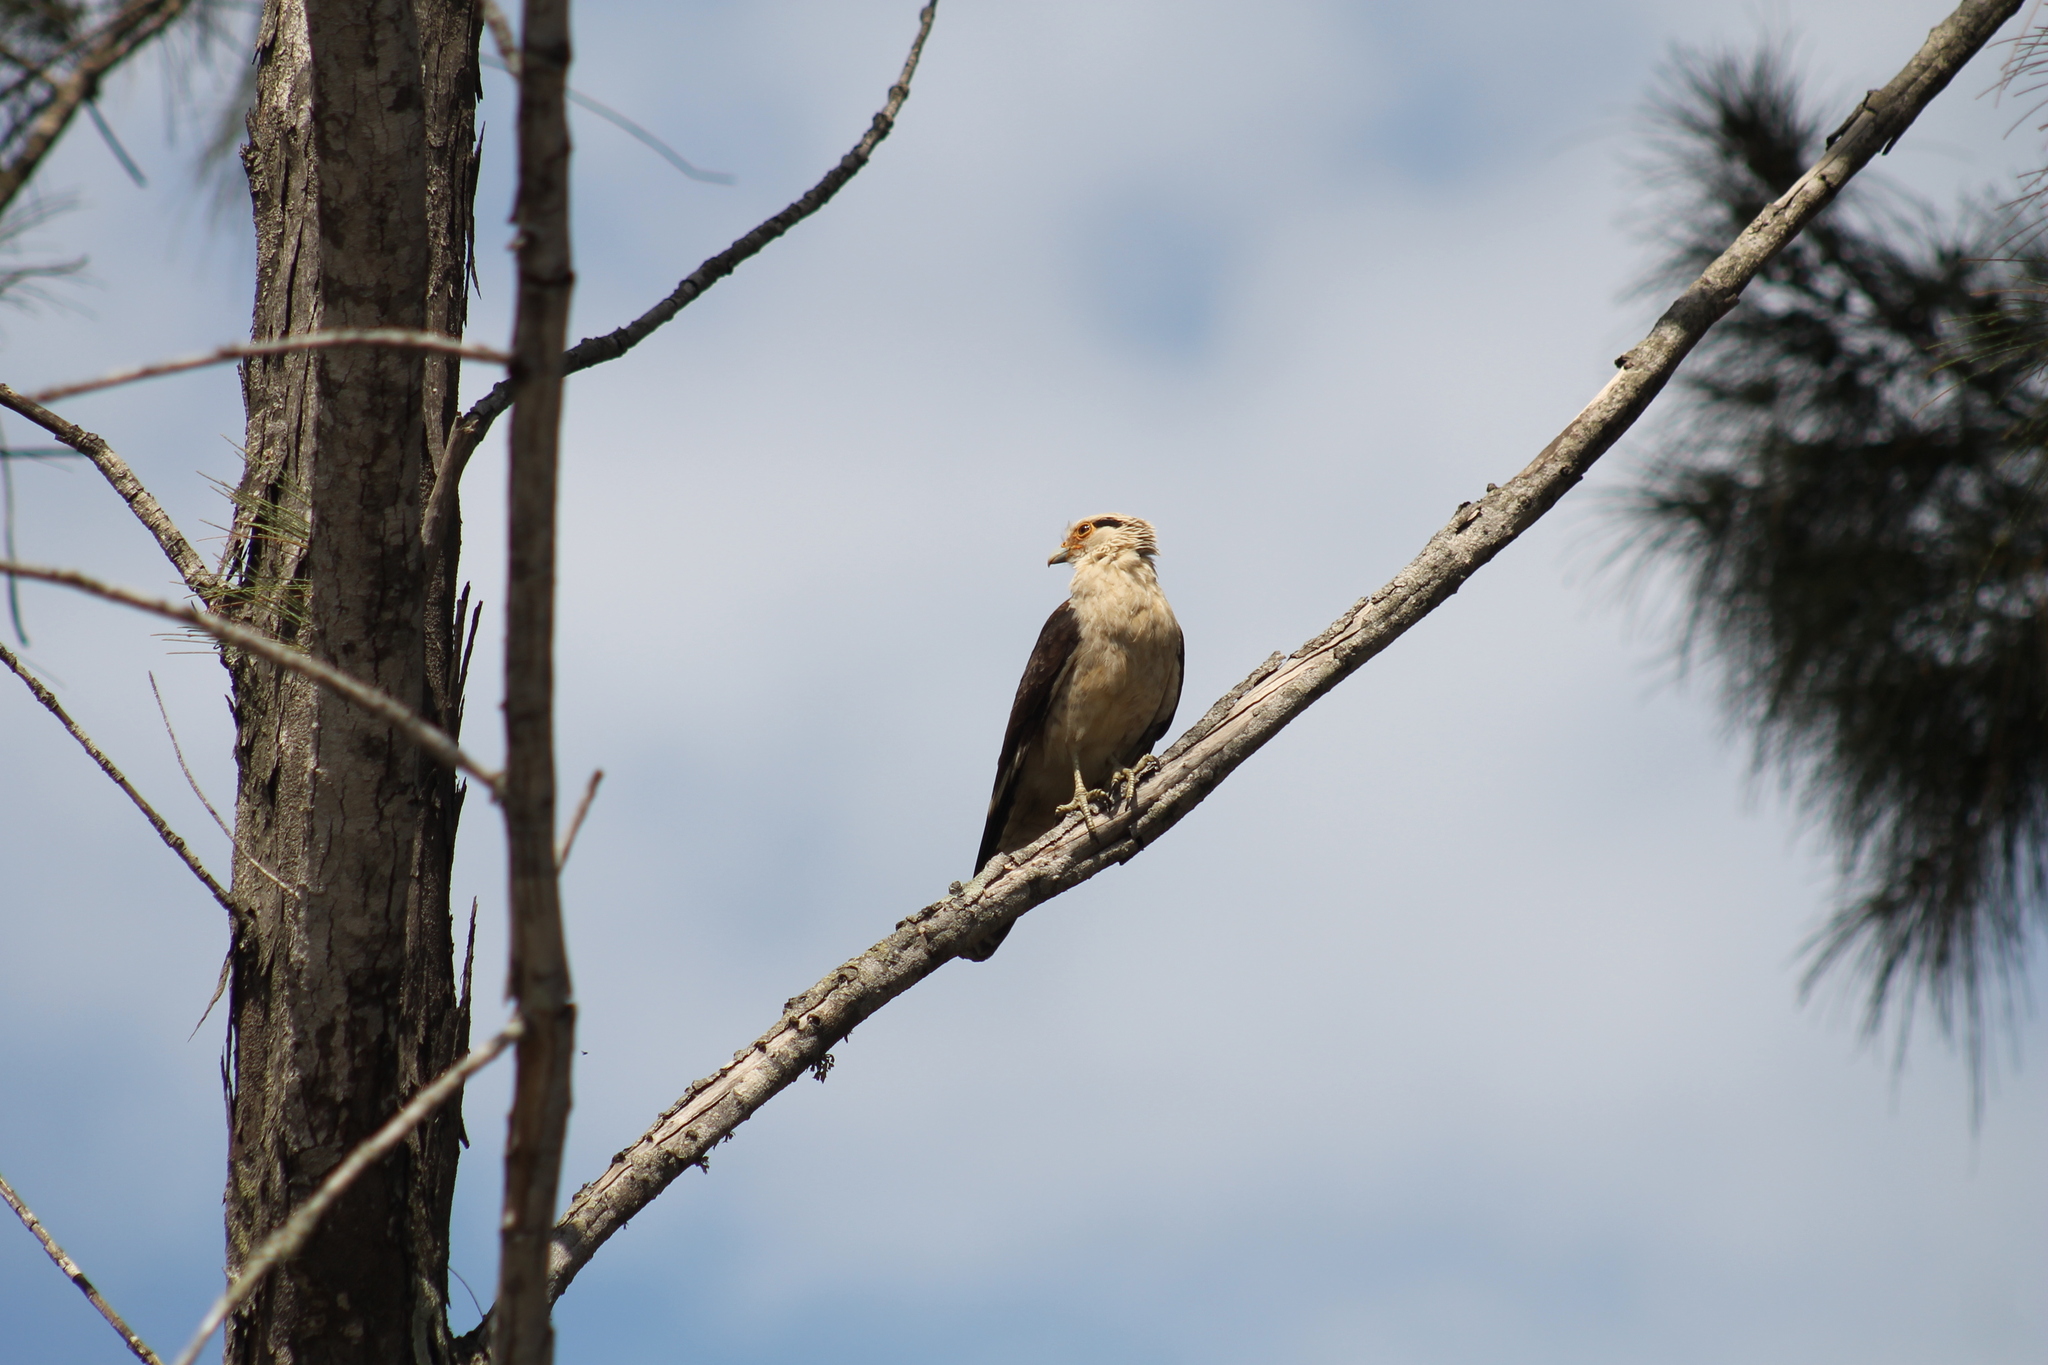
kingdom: Animalia
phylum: Chordata
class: Aves
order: Falconiformes
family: Falconidae
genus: Daptrius
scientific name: Daptrius
